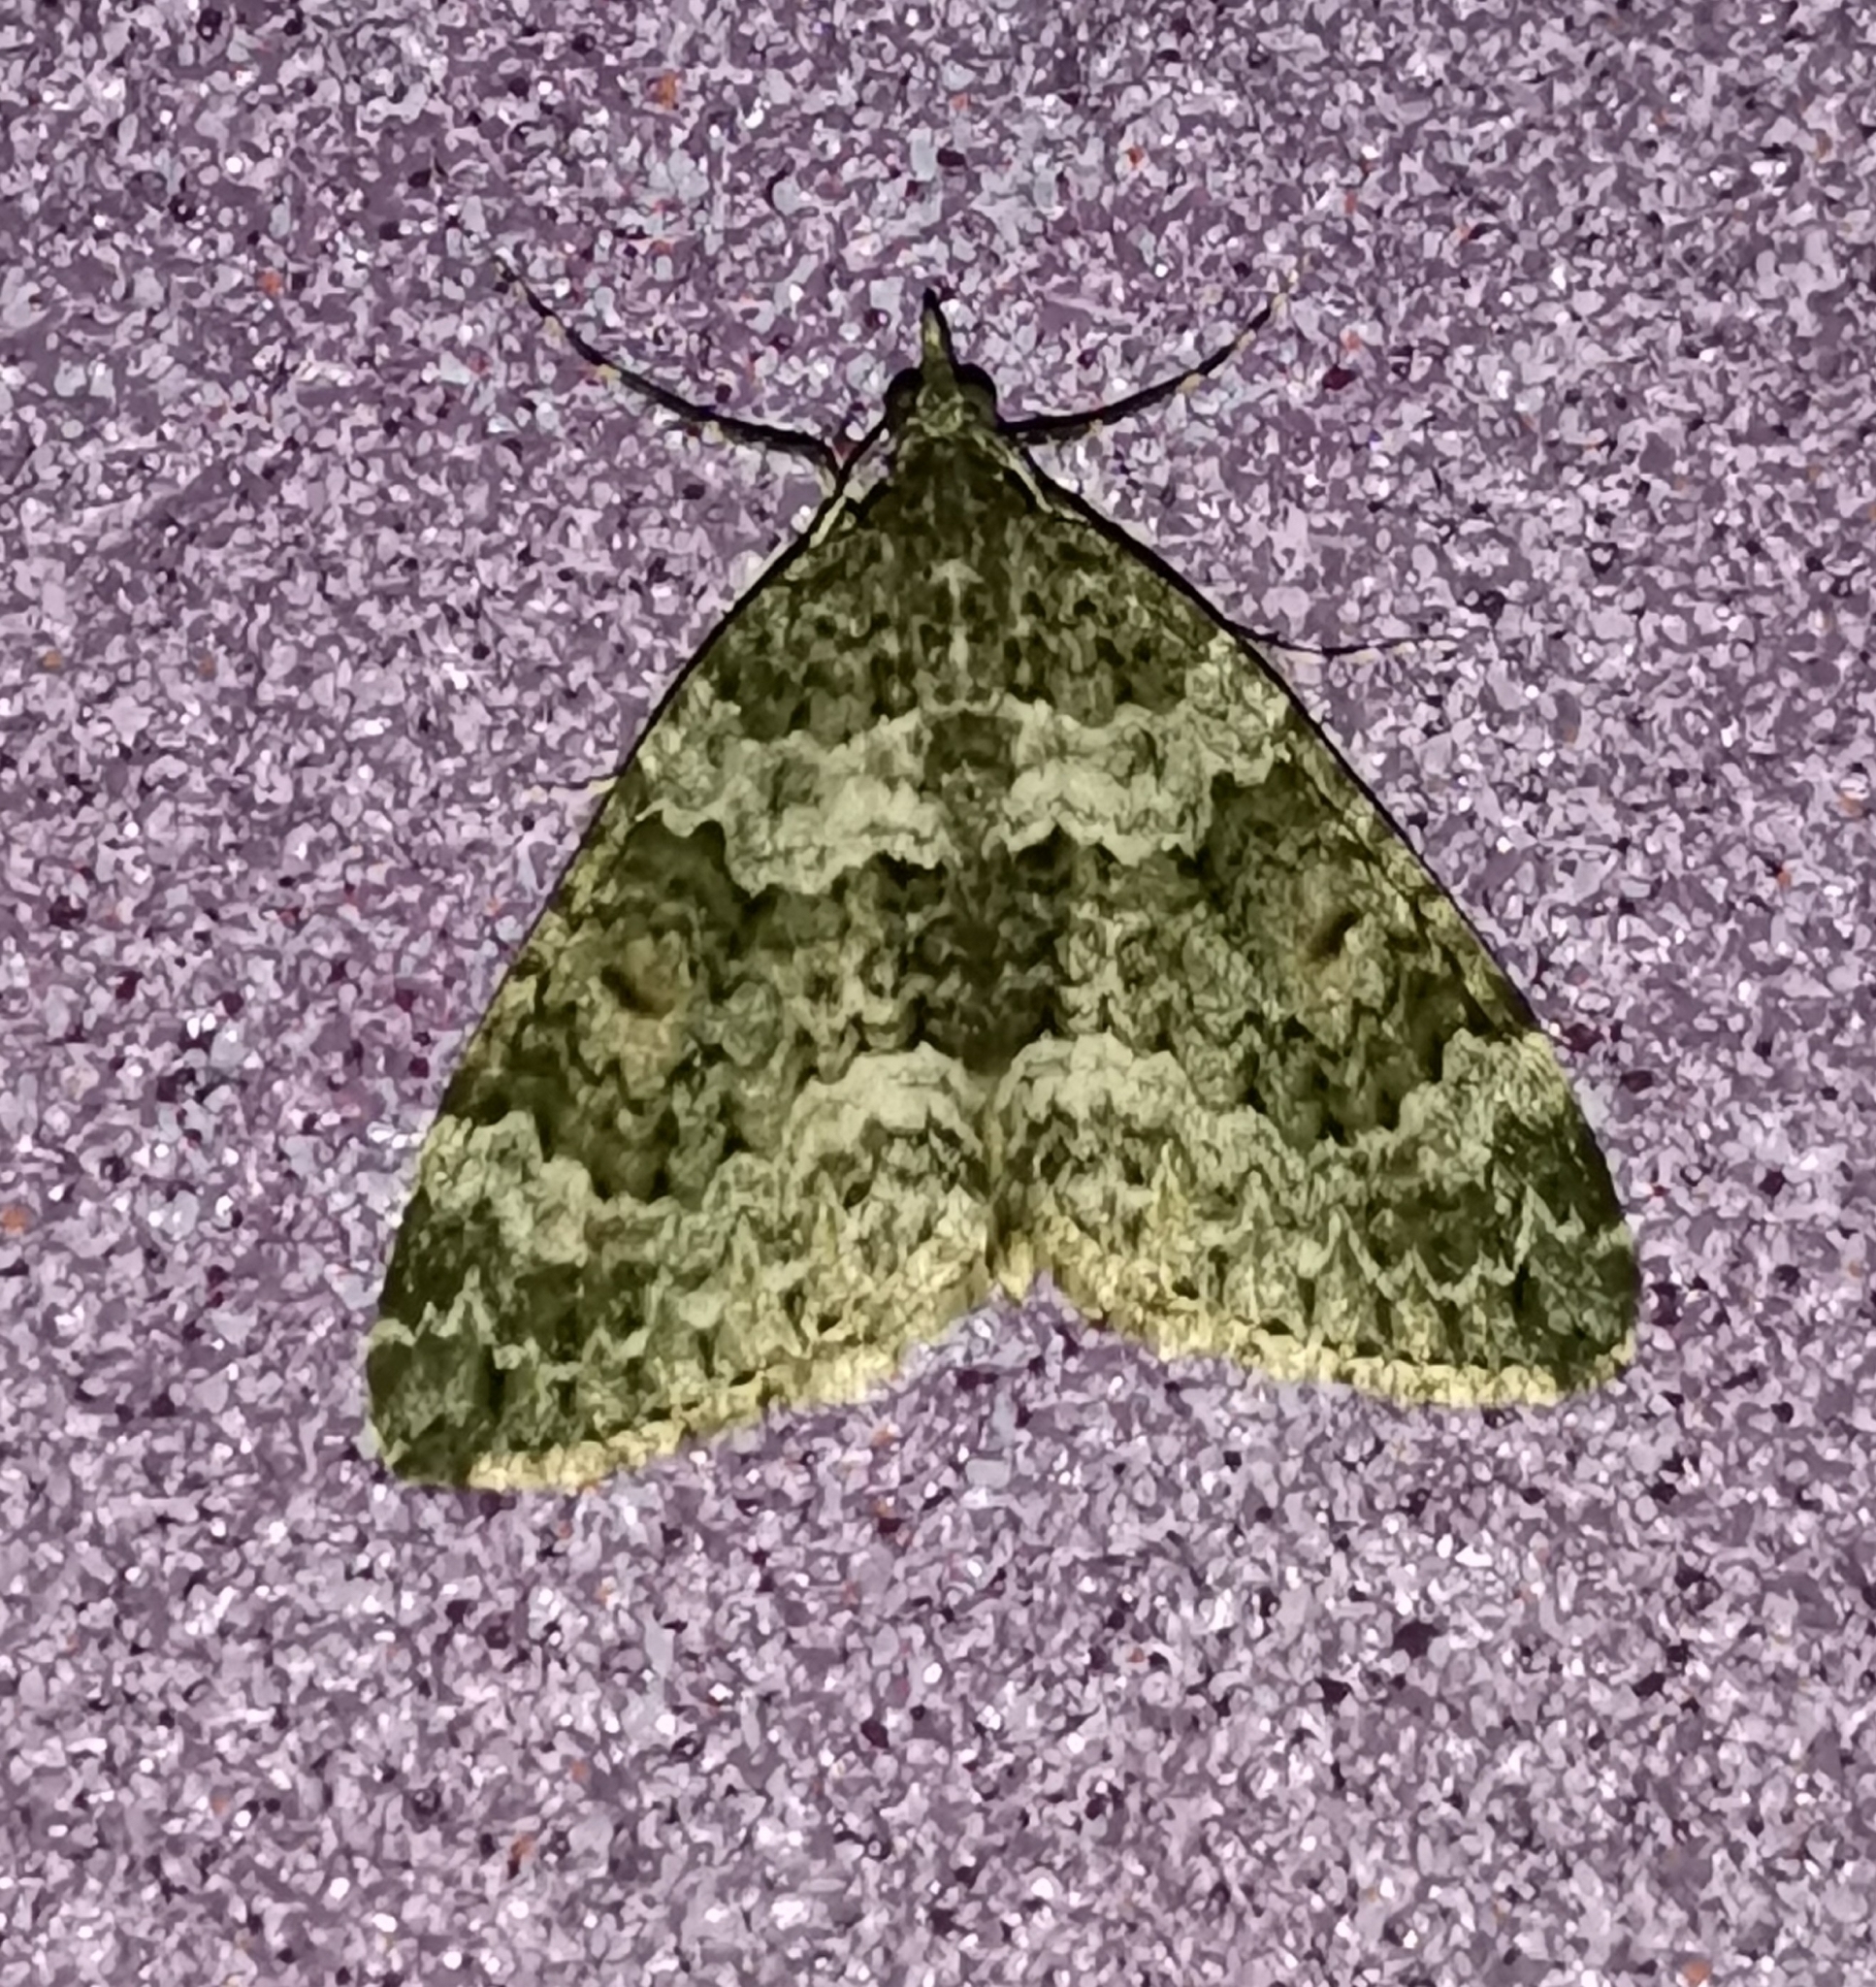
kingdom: Animalia
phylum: Arthropoda
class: Insecta
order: Lepidoptera
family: Geometridae
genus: Chloroclysta
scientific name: Chloroclysta miata
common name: Autumn green carpet
